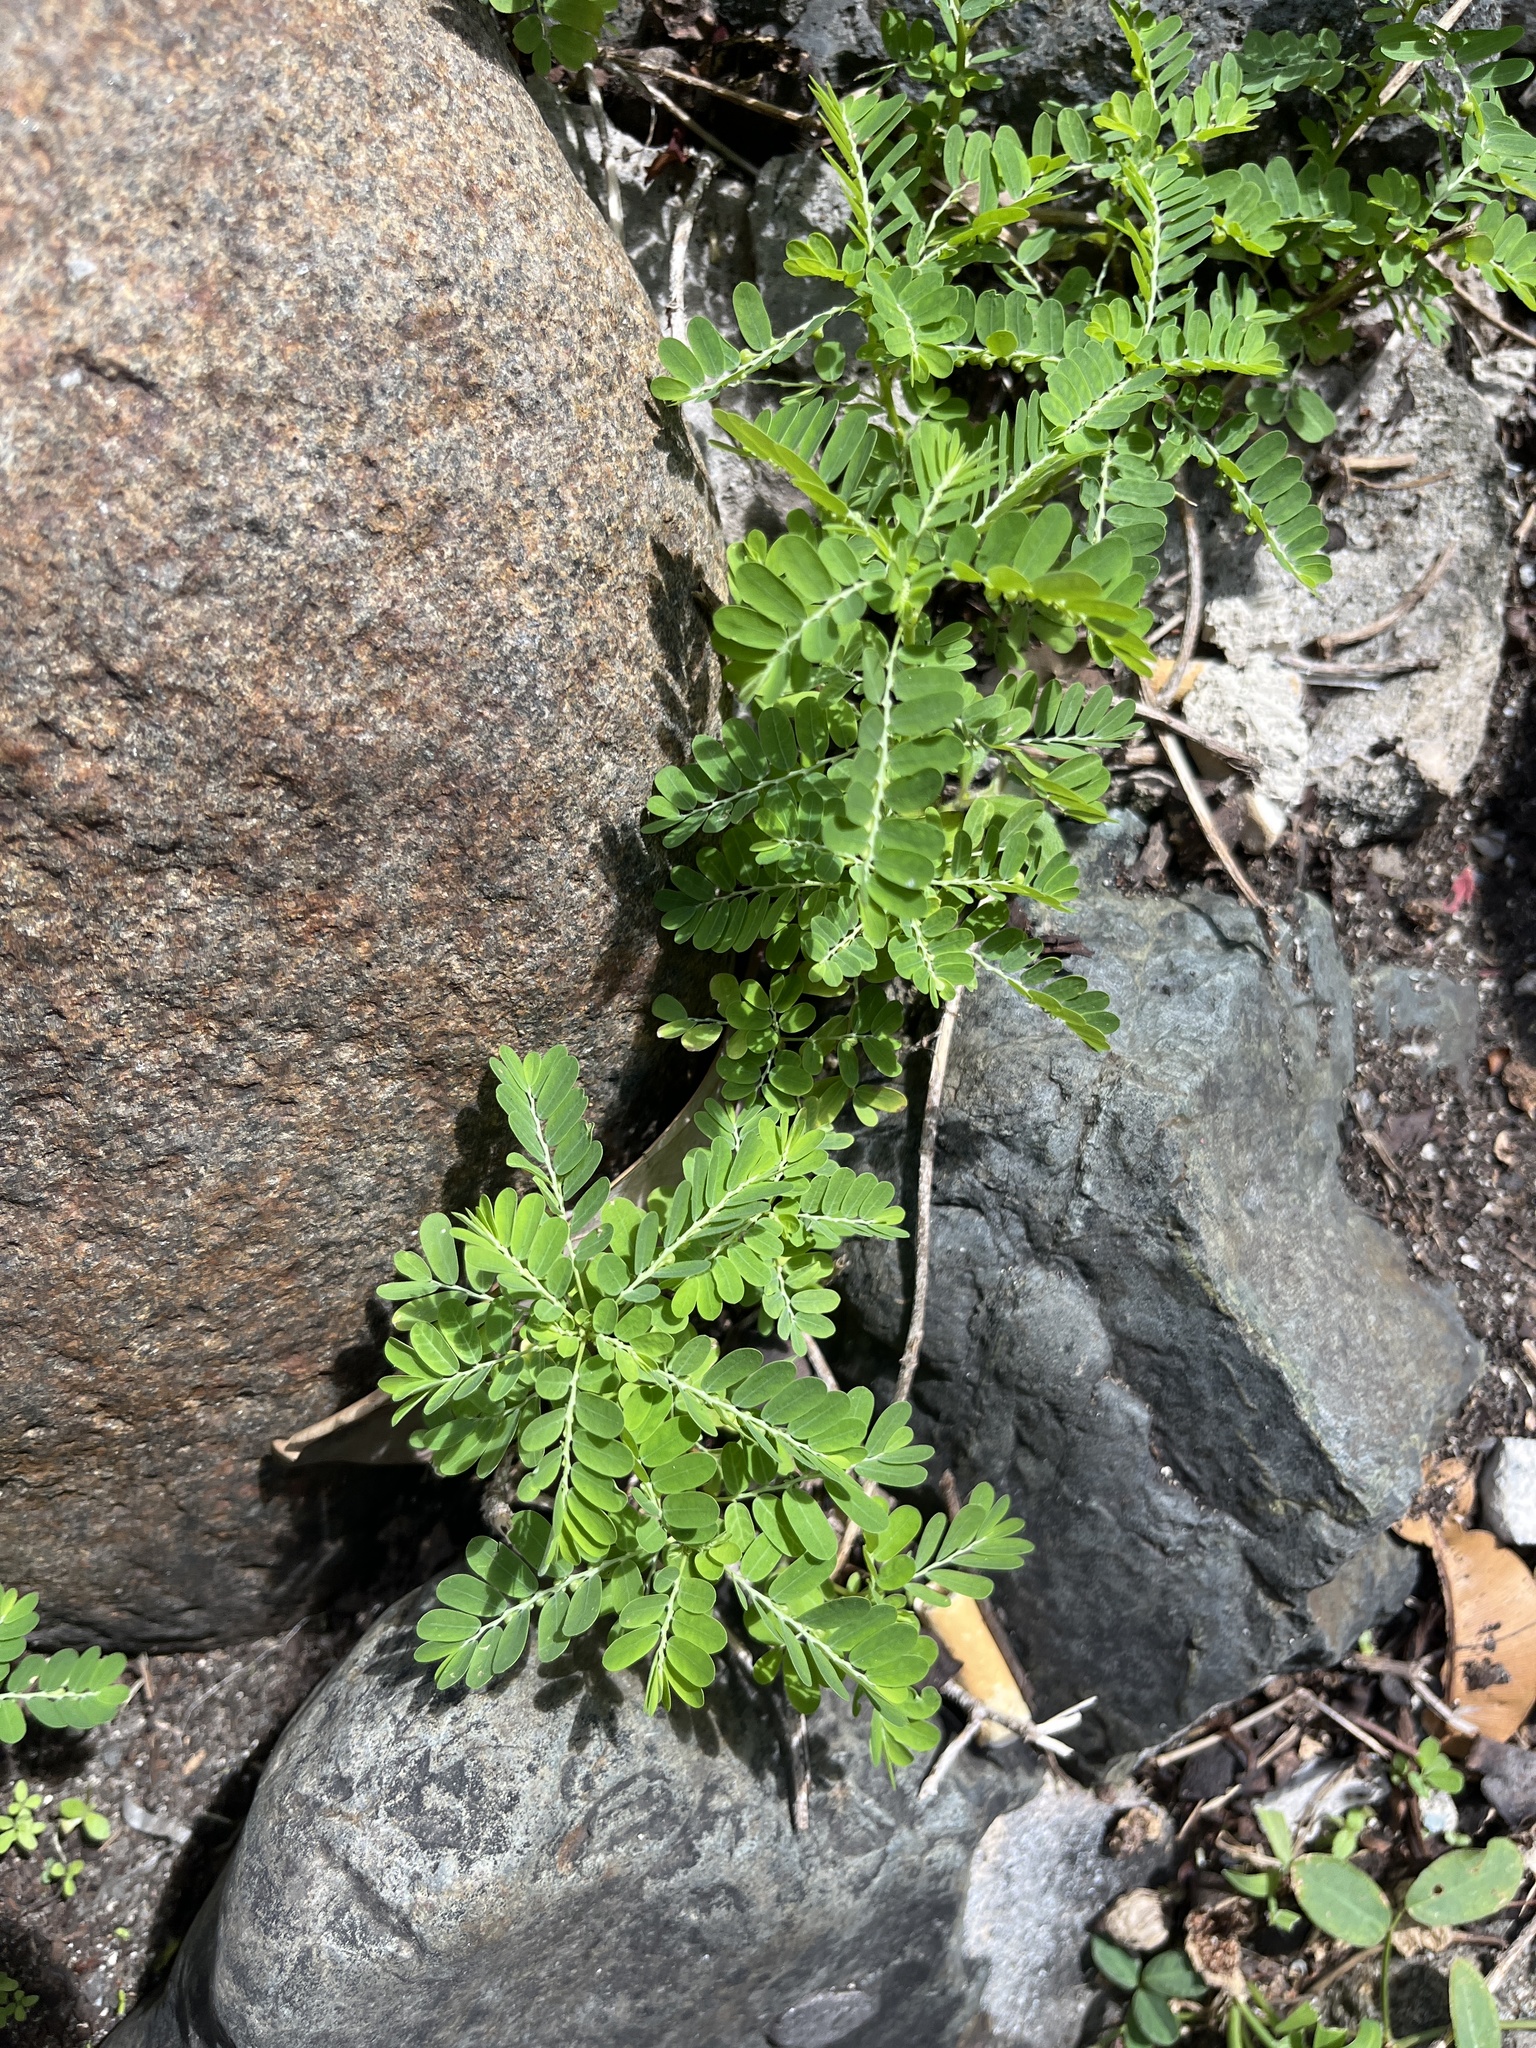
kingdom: Plantae
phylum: Tracheophyta
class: Magnoliopsida
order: Malpighiales
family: Phyllanthaceae
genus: Phyllanthus
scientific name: Phyllanthus amarus
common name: Carry me seed
